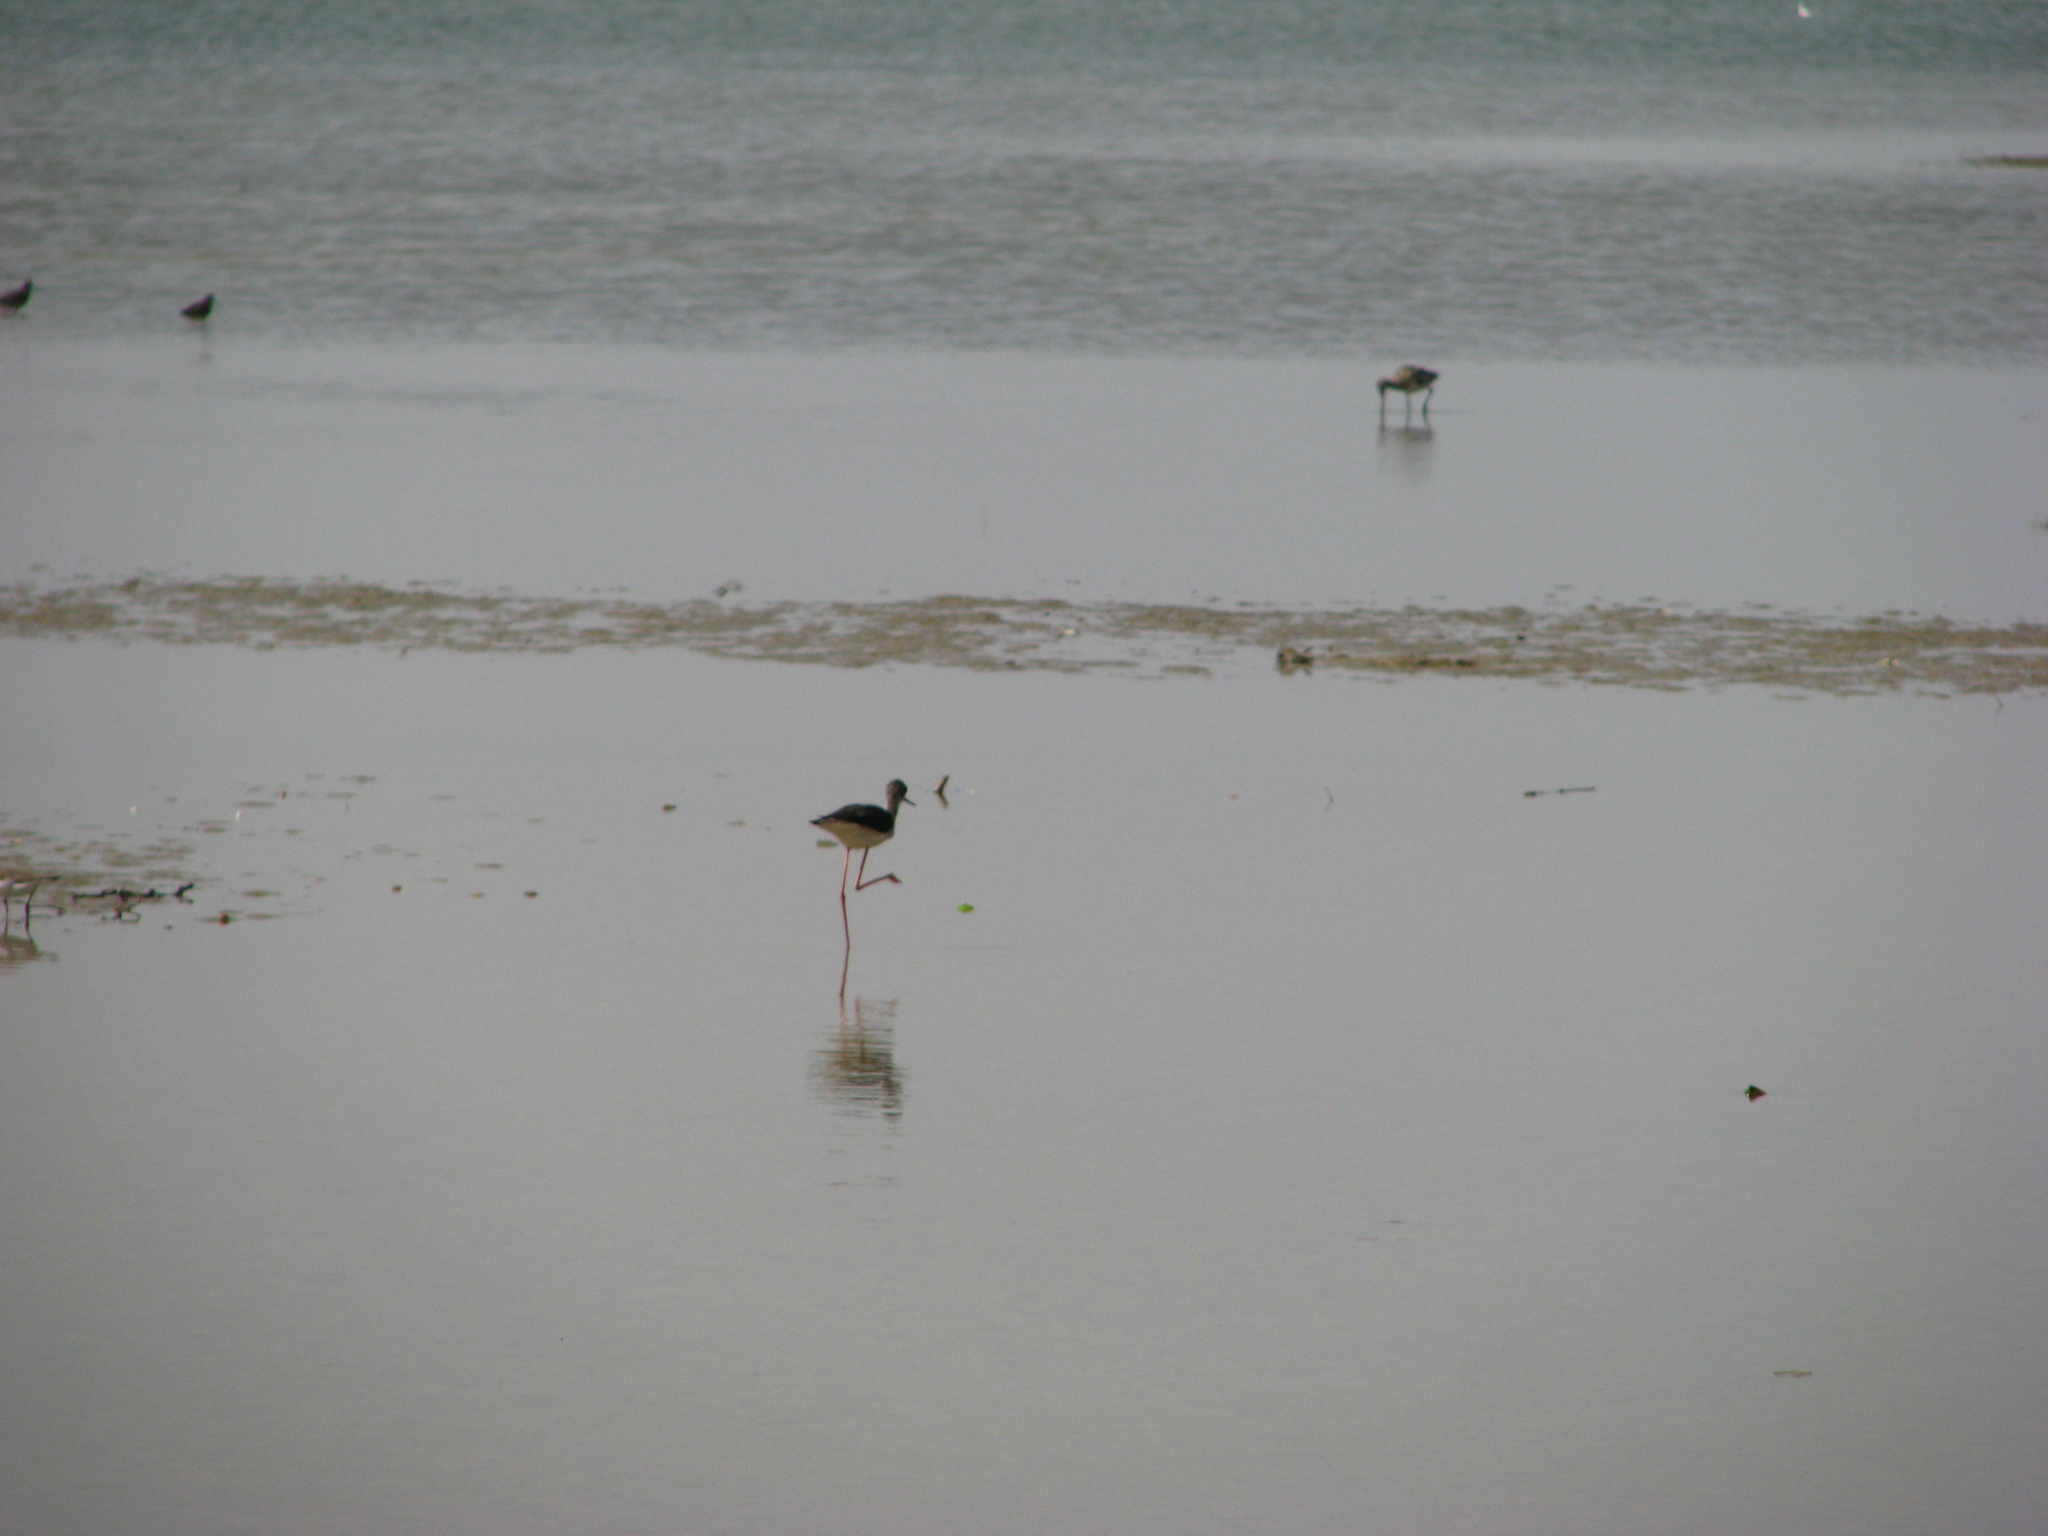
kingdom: Animalia
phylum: Chordata
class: Aves
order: Charadriiformes
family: Recurvirostridae
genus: Himantopus
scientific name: Himantopus himantopus
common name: Black-winged stilt
